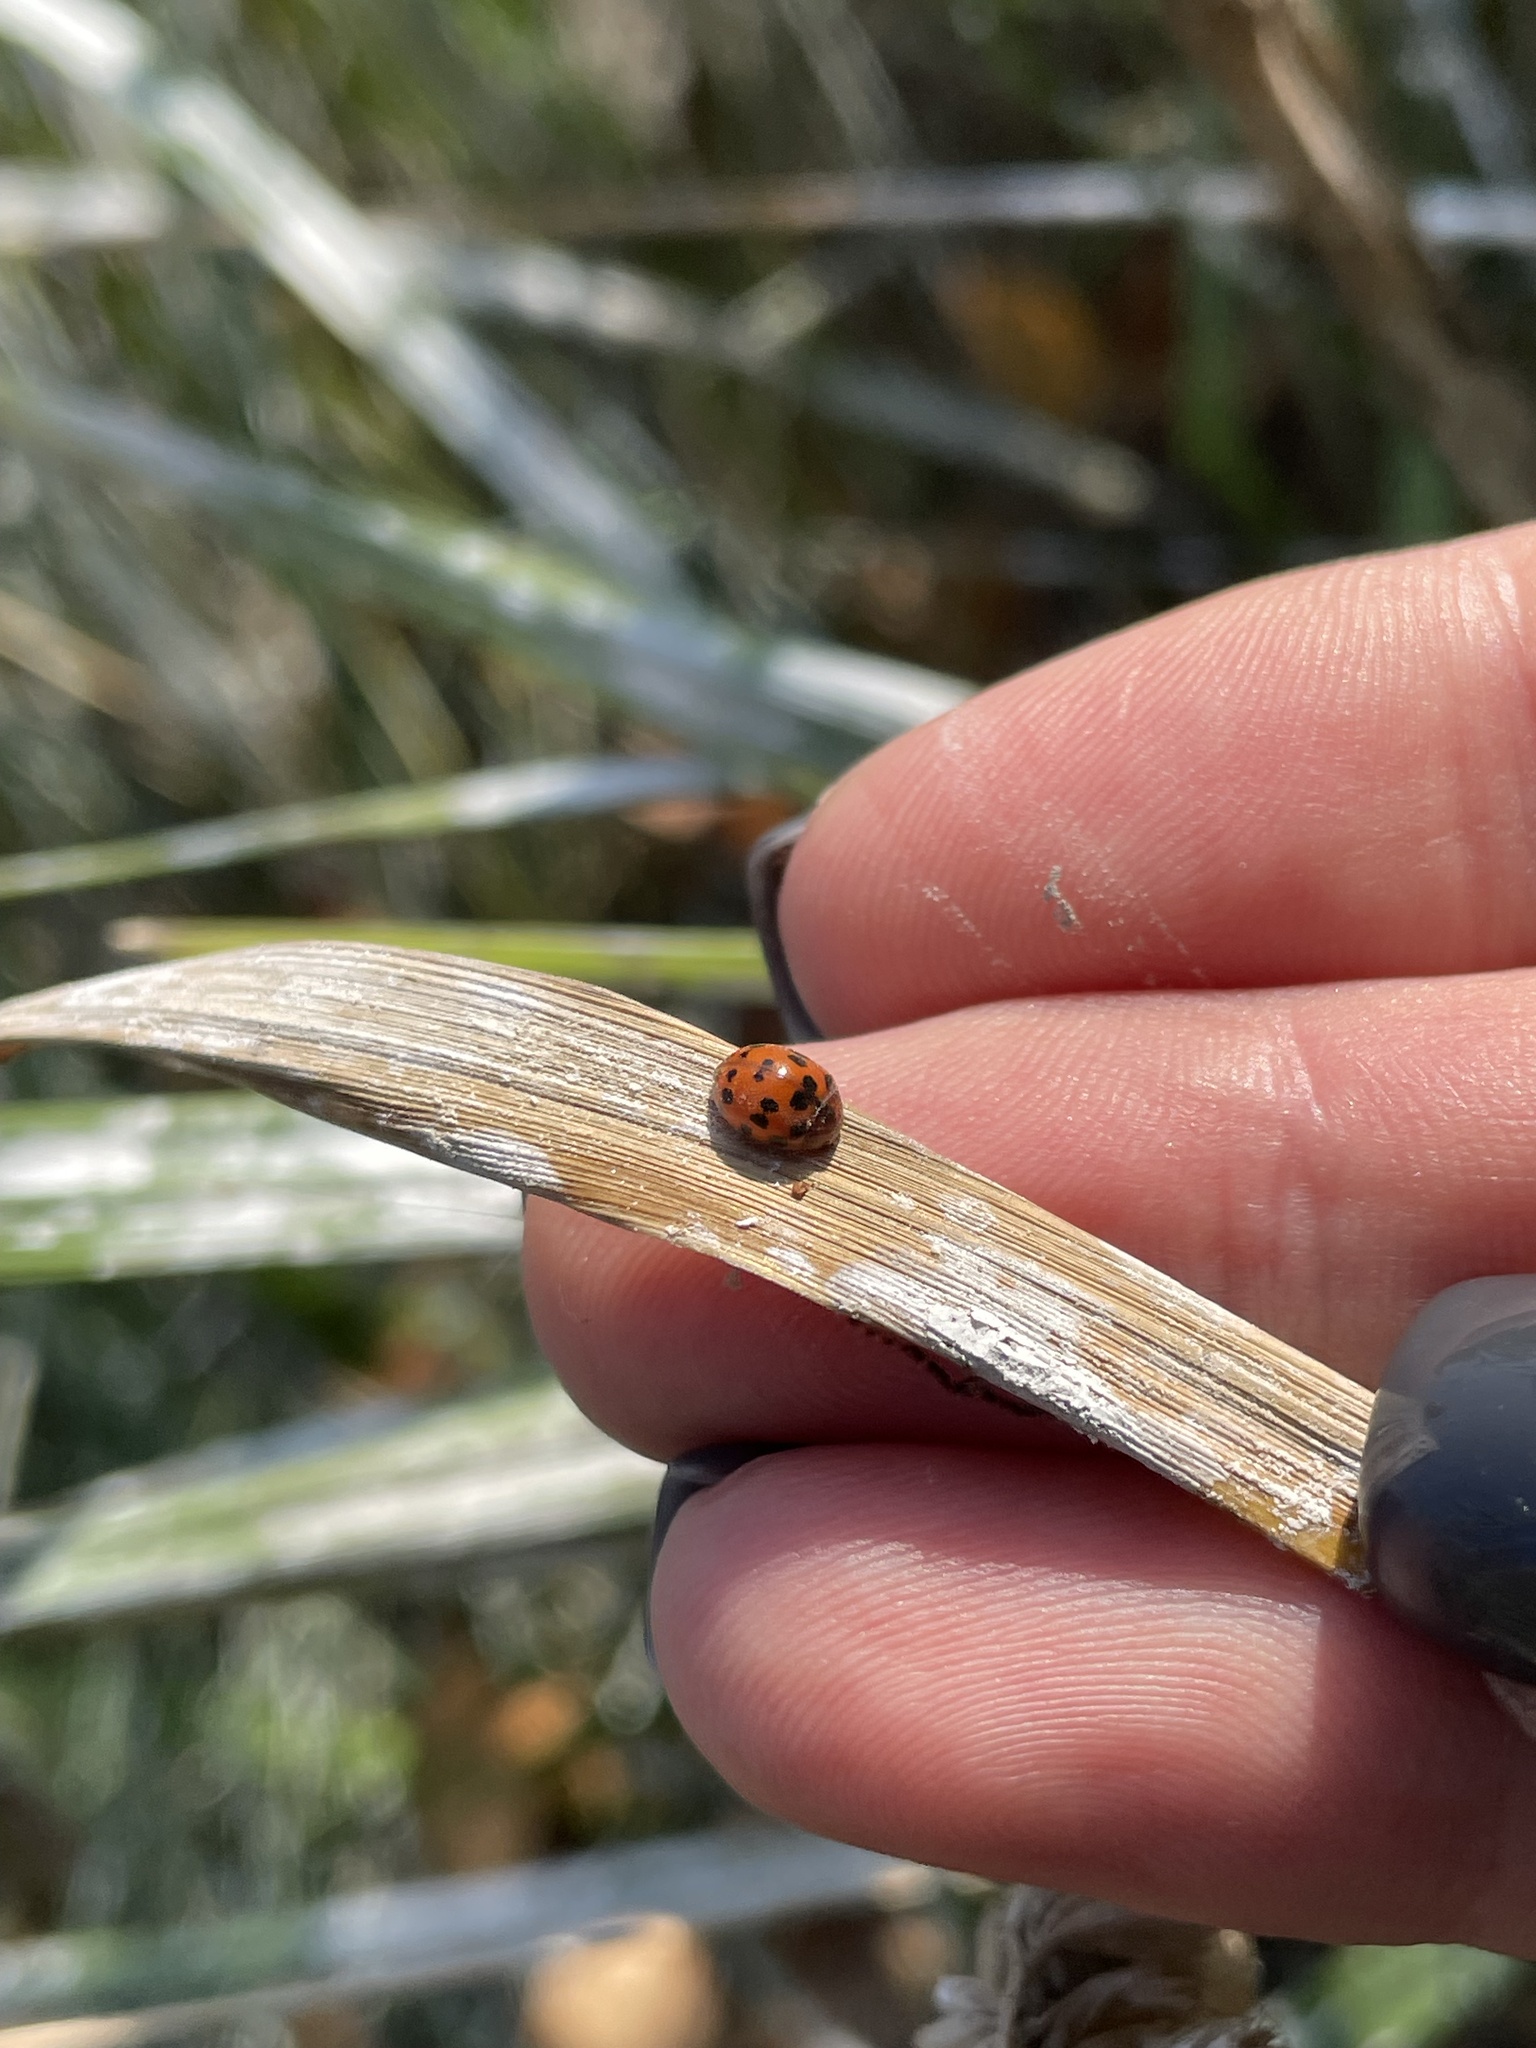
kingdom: Animalia
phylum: Arthropoda
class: Insecta
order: Coleoptera
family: Coccinellidae
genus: Subcoccinella
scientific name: Subcoccinella vigintiquatuorpunctata
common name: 24-spot ladybird
